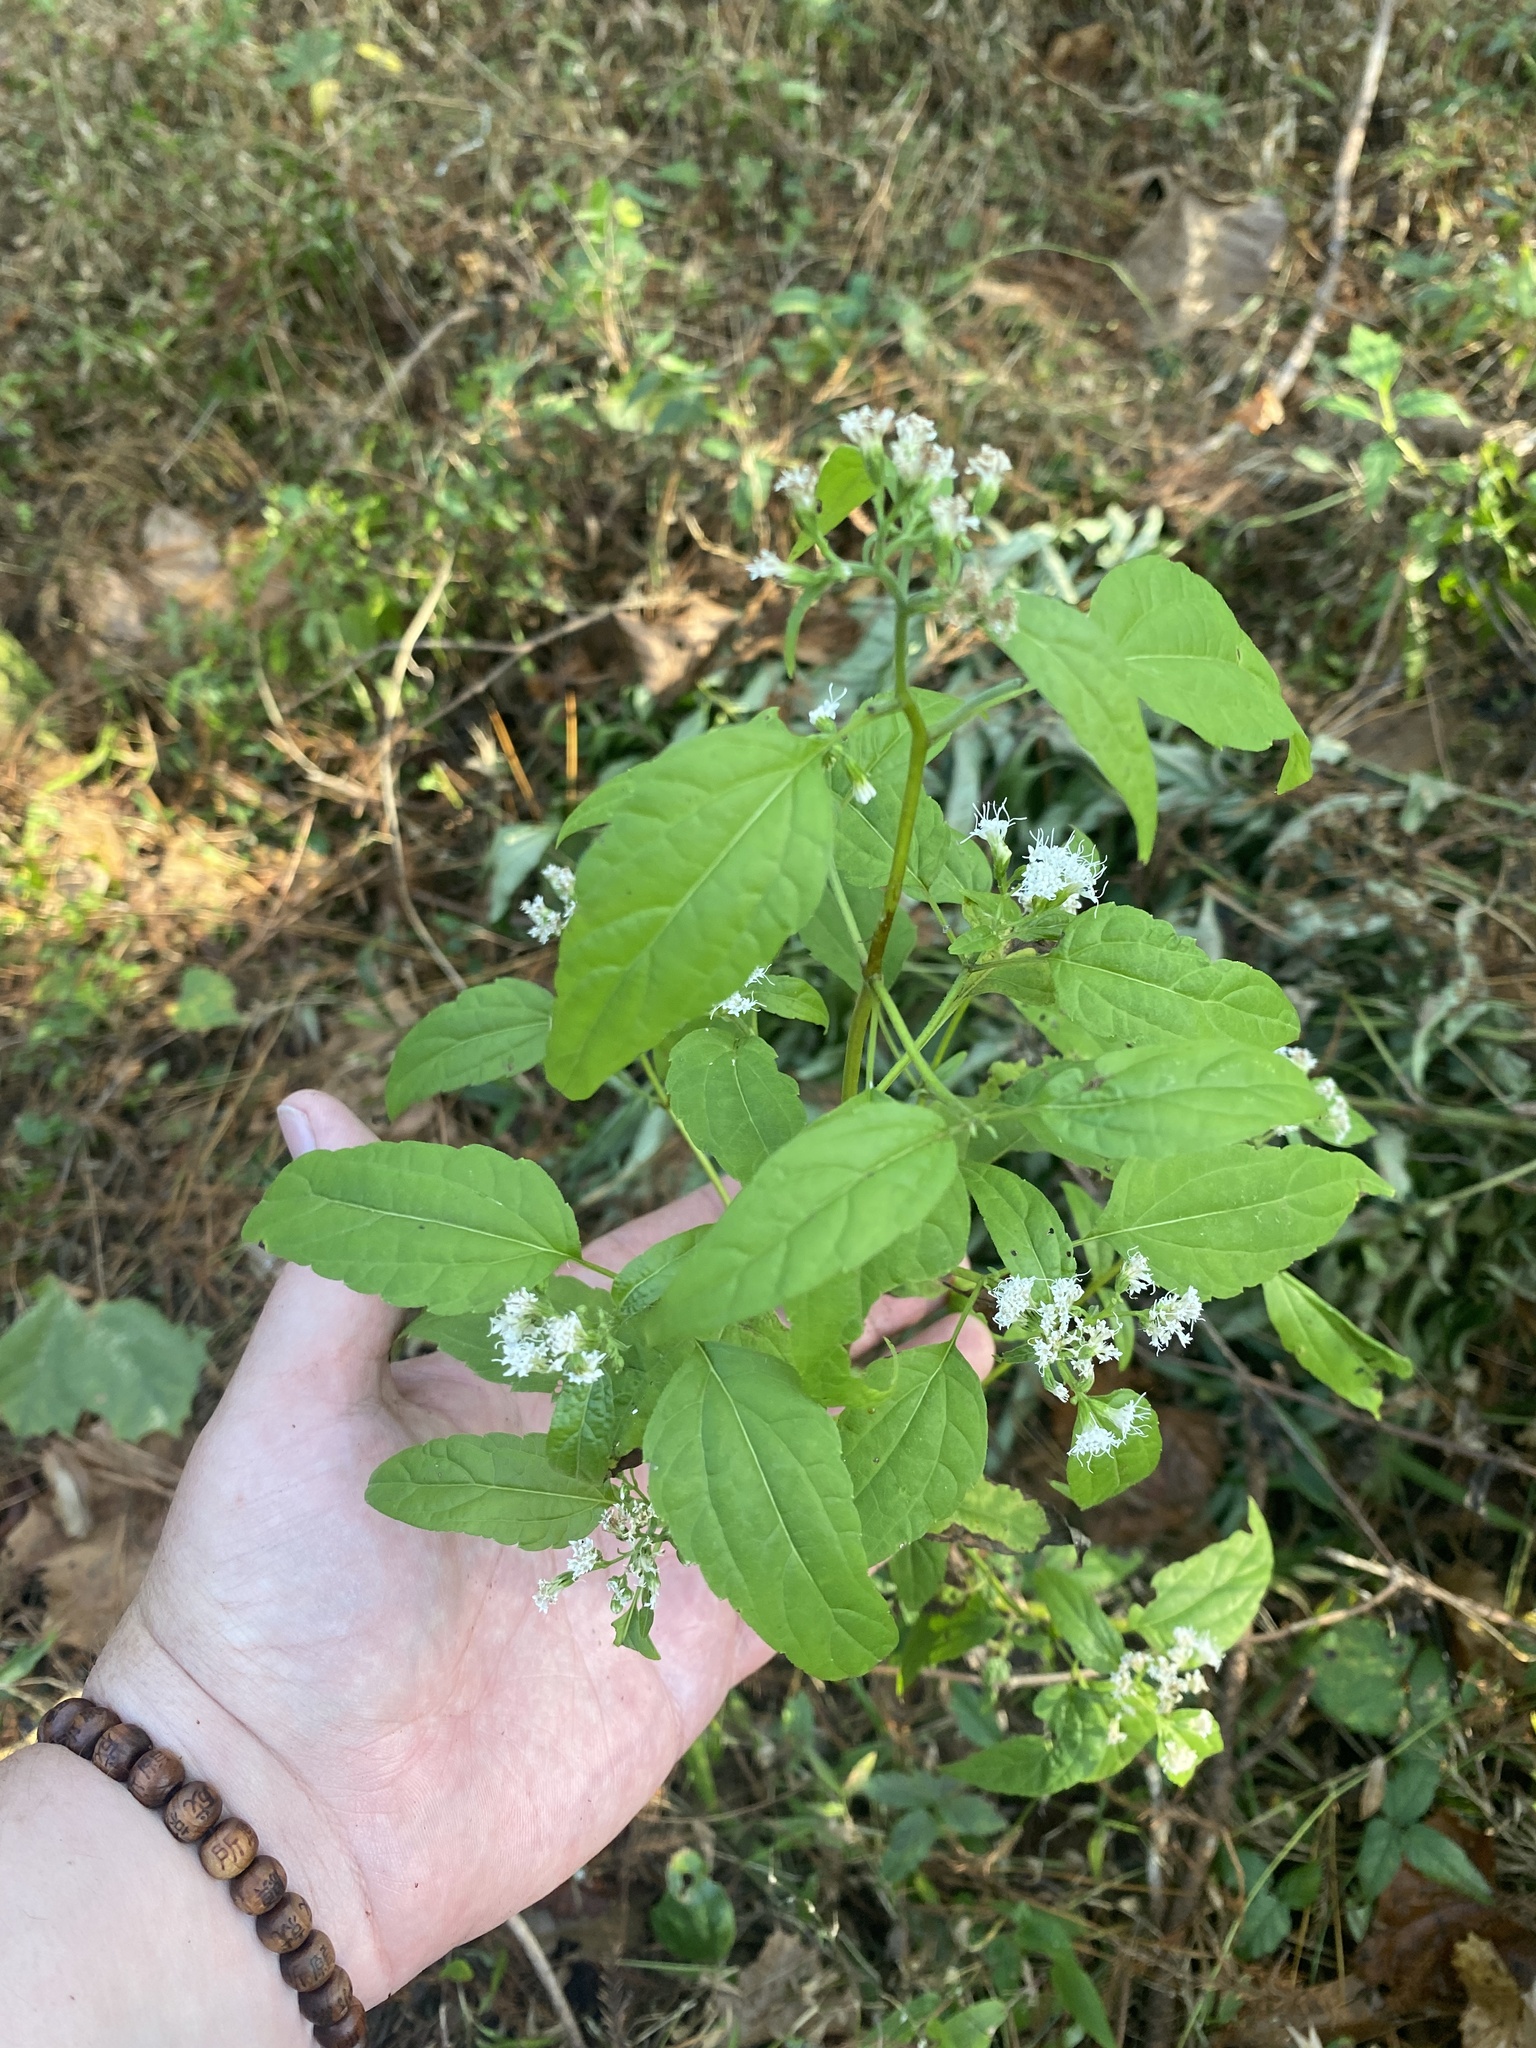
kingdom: Plantae
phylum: Tracheophyta
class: Magnoliopsida
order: Asterales
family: Asteraceae
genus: Ageratina
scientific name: Ageratina altissima
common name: White snakeroot
